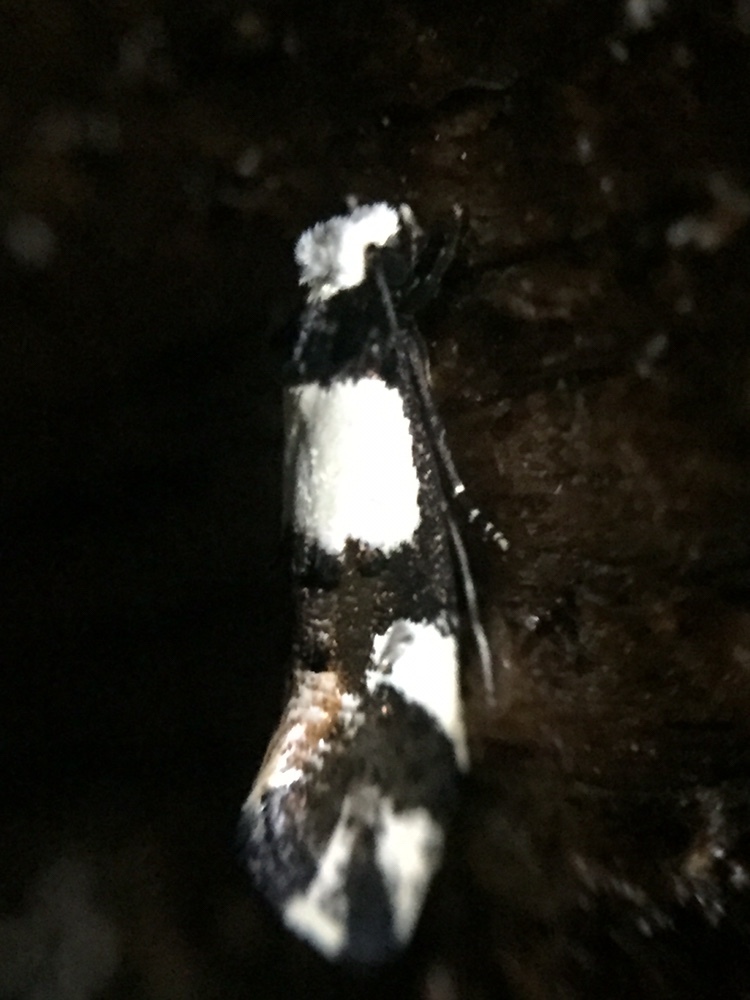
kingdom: Animalia
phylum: Arthropoda
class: Insecta
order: Lepidoptera
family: Tineidae
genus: Monopis
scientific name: Monopis icterogastra
